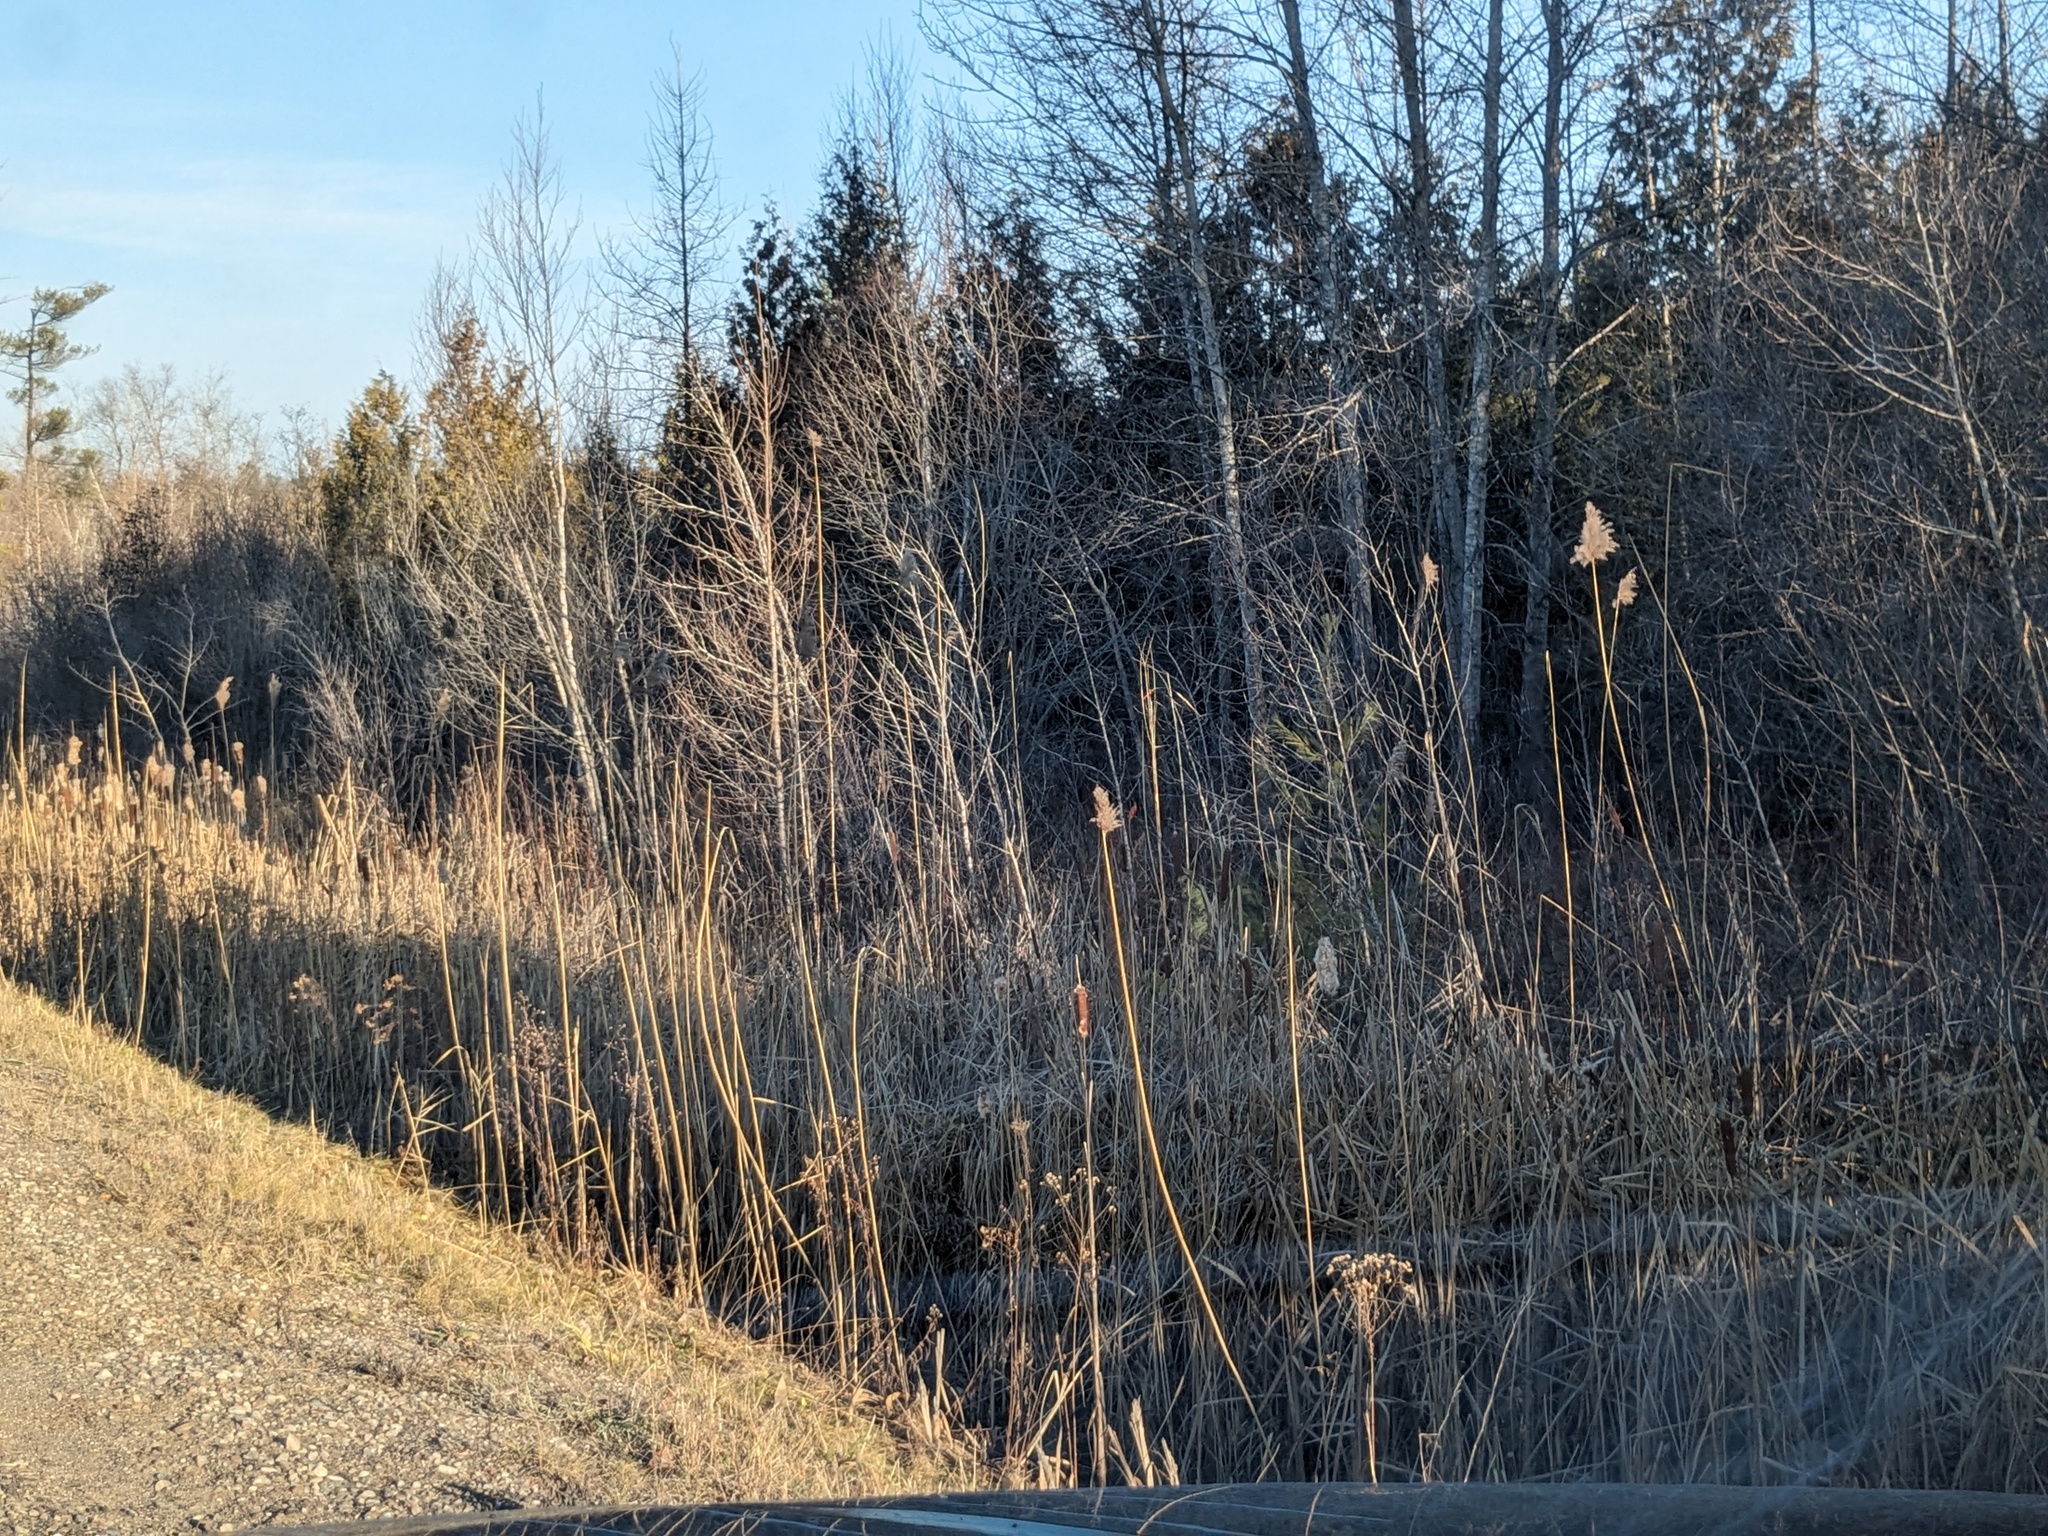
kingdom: Plantae
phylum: Tracheophyta
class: Liliopsida
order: Poales
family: Poaceae
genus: Phragmites
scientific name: Phragmites australis
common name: Common reed
